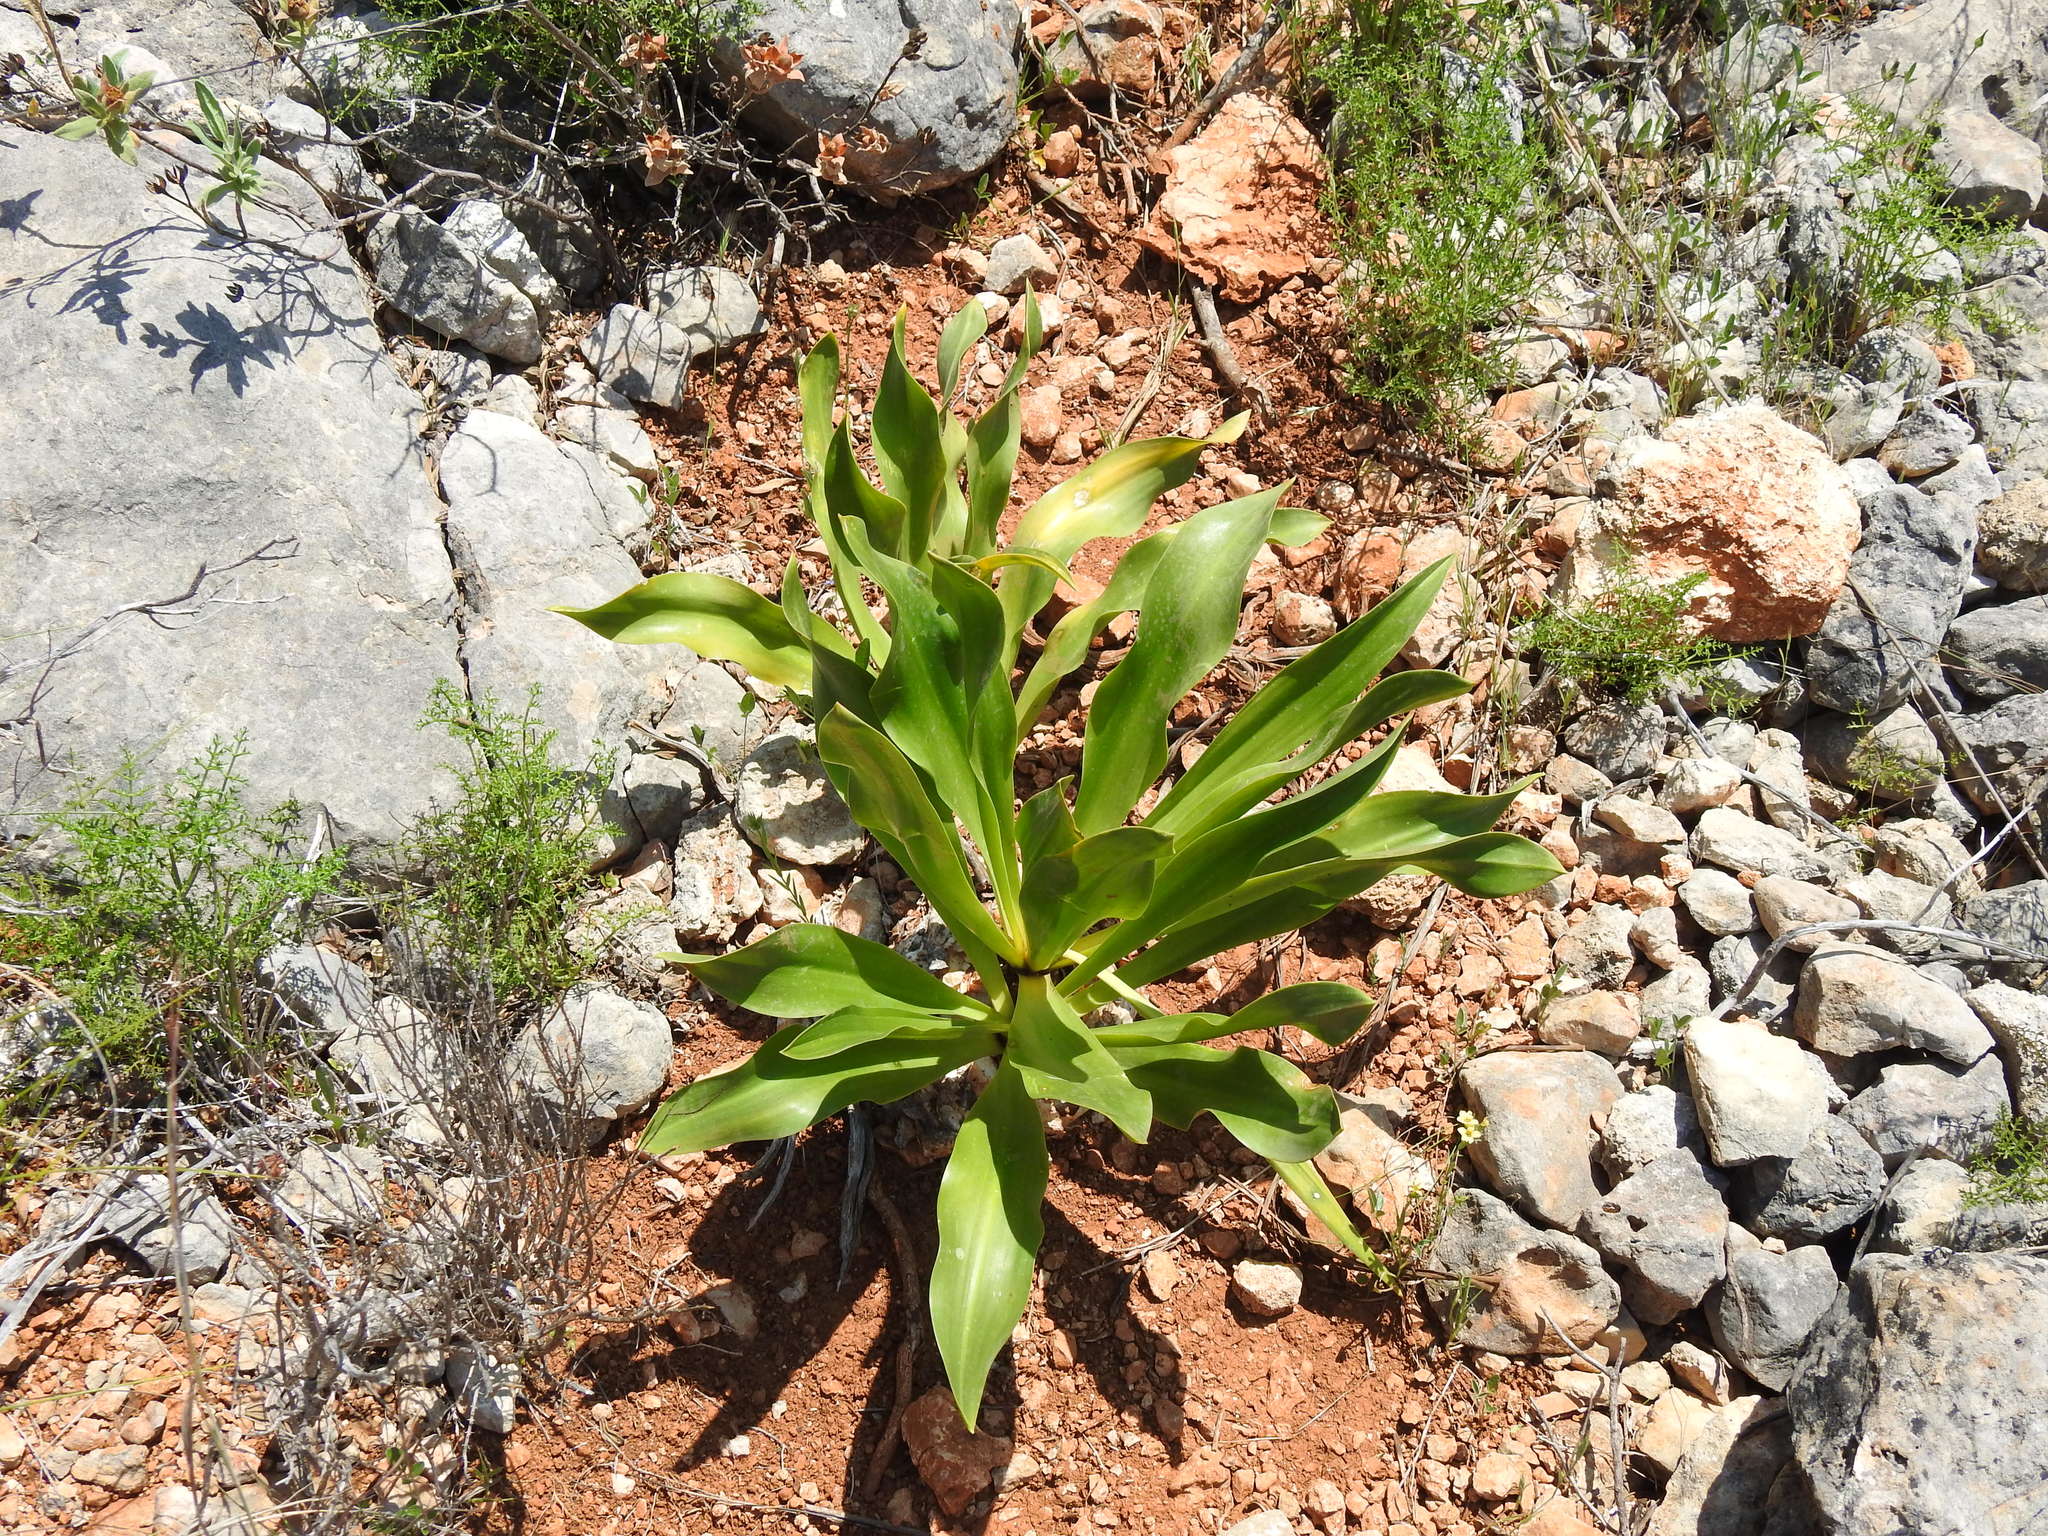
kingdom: Plantae
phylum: Tracheophyta
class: Liliopsida
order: Asparagales
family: Asparagaceae
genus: Drimia
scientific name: Drimia maritima
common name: Maritime squill
